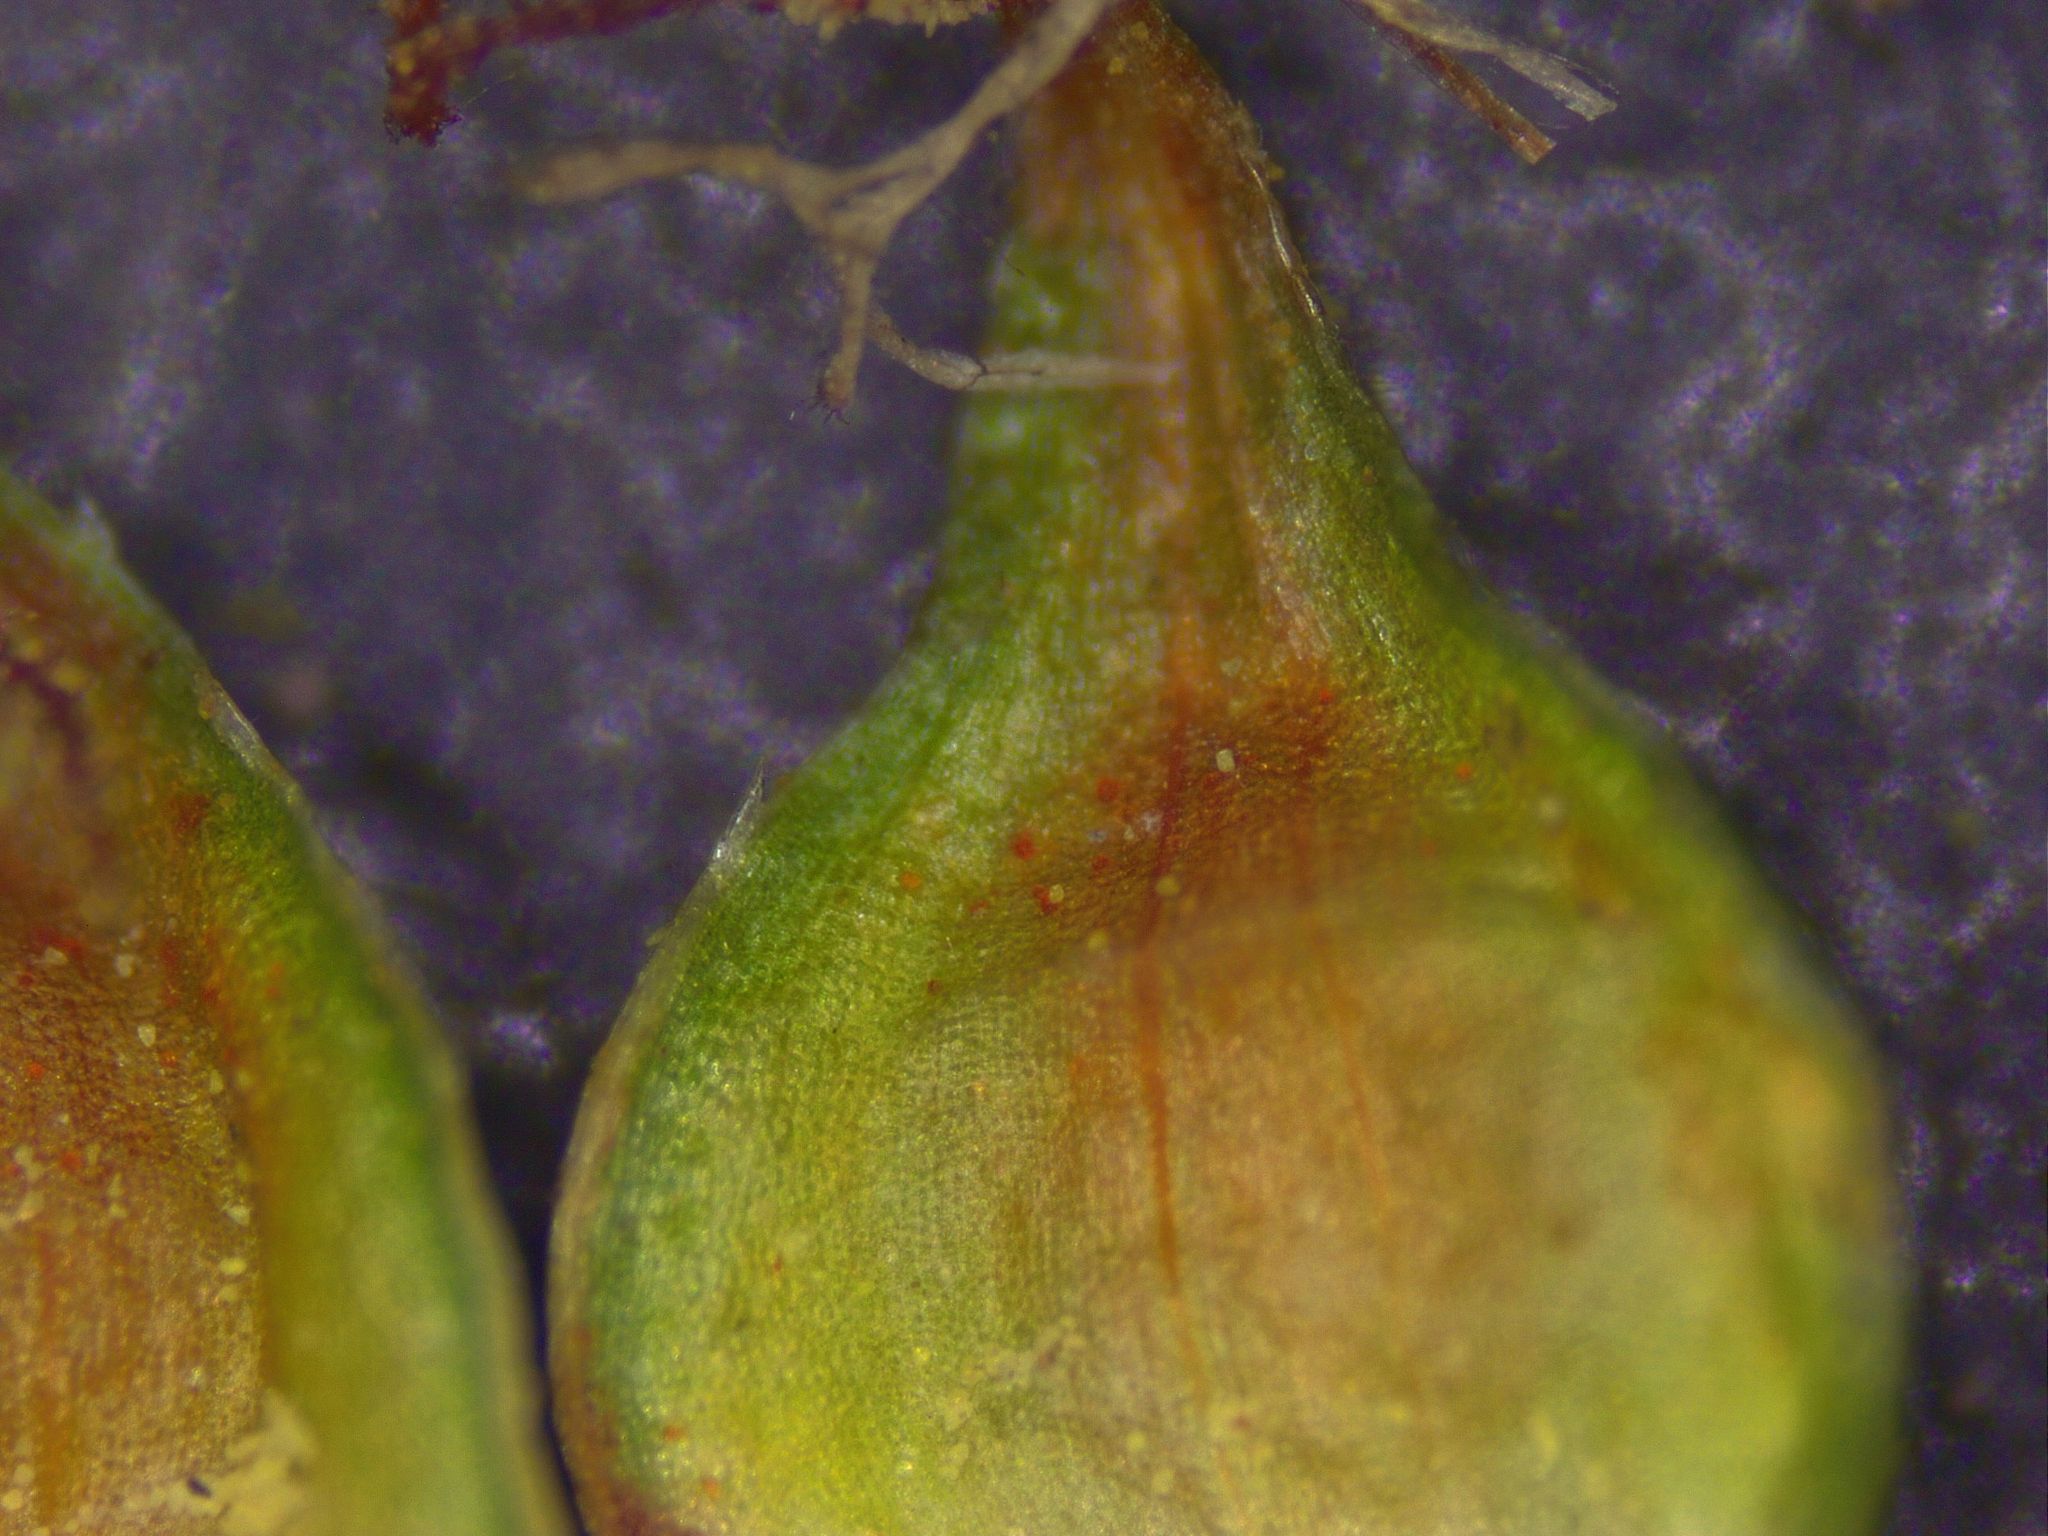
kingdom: Plantae
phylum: Tracheophyta
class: Liliopsida
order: Poales
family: Cyperaceae
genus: Carex
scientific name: Carex triangularis
